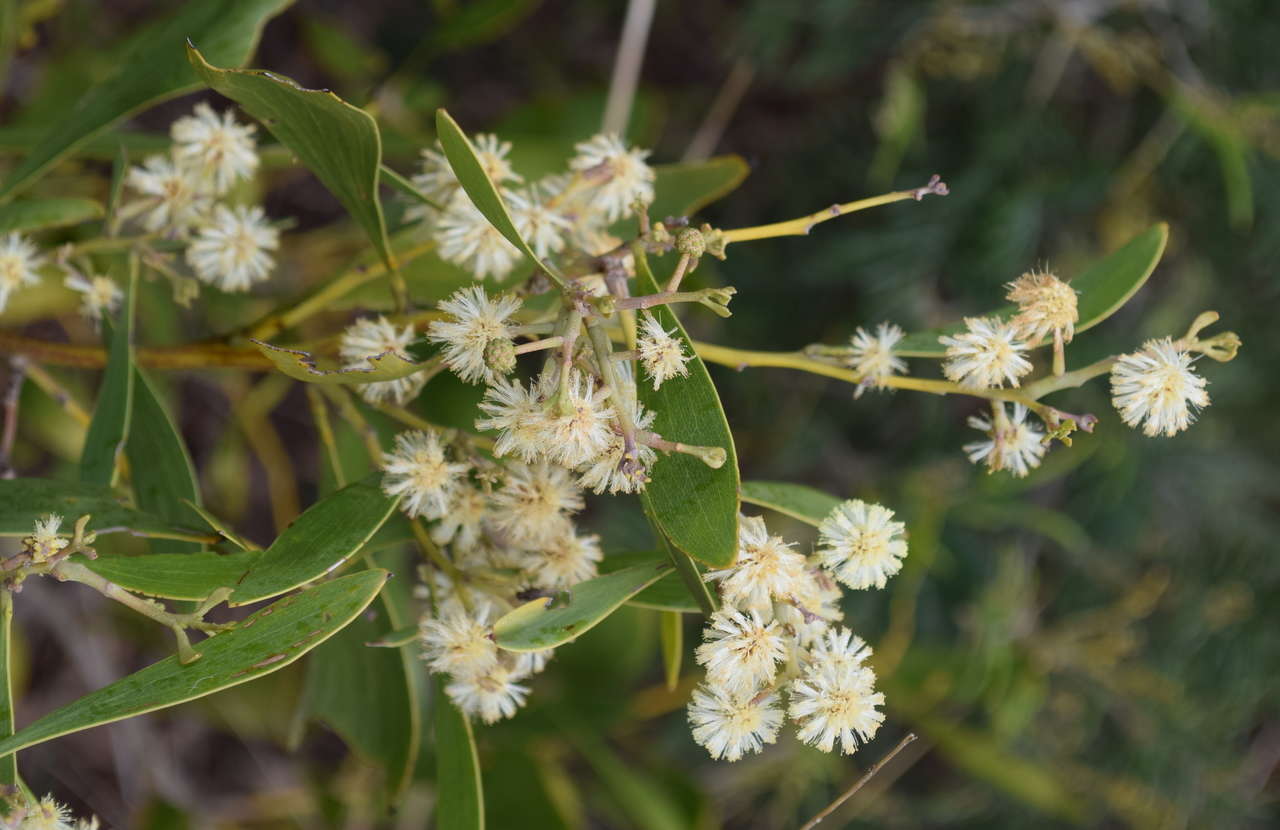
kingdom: Plantae
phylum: Tracheophyta
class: Magnoliopsida
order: Fabales
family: Fabaceae
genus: Acacia
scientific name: Acacia melanoxylon
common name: Blackwood
